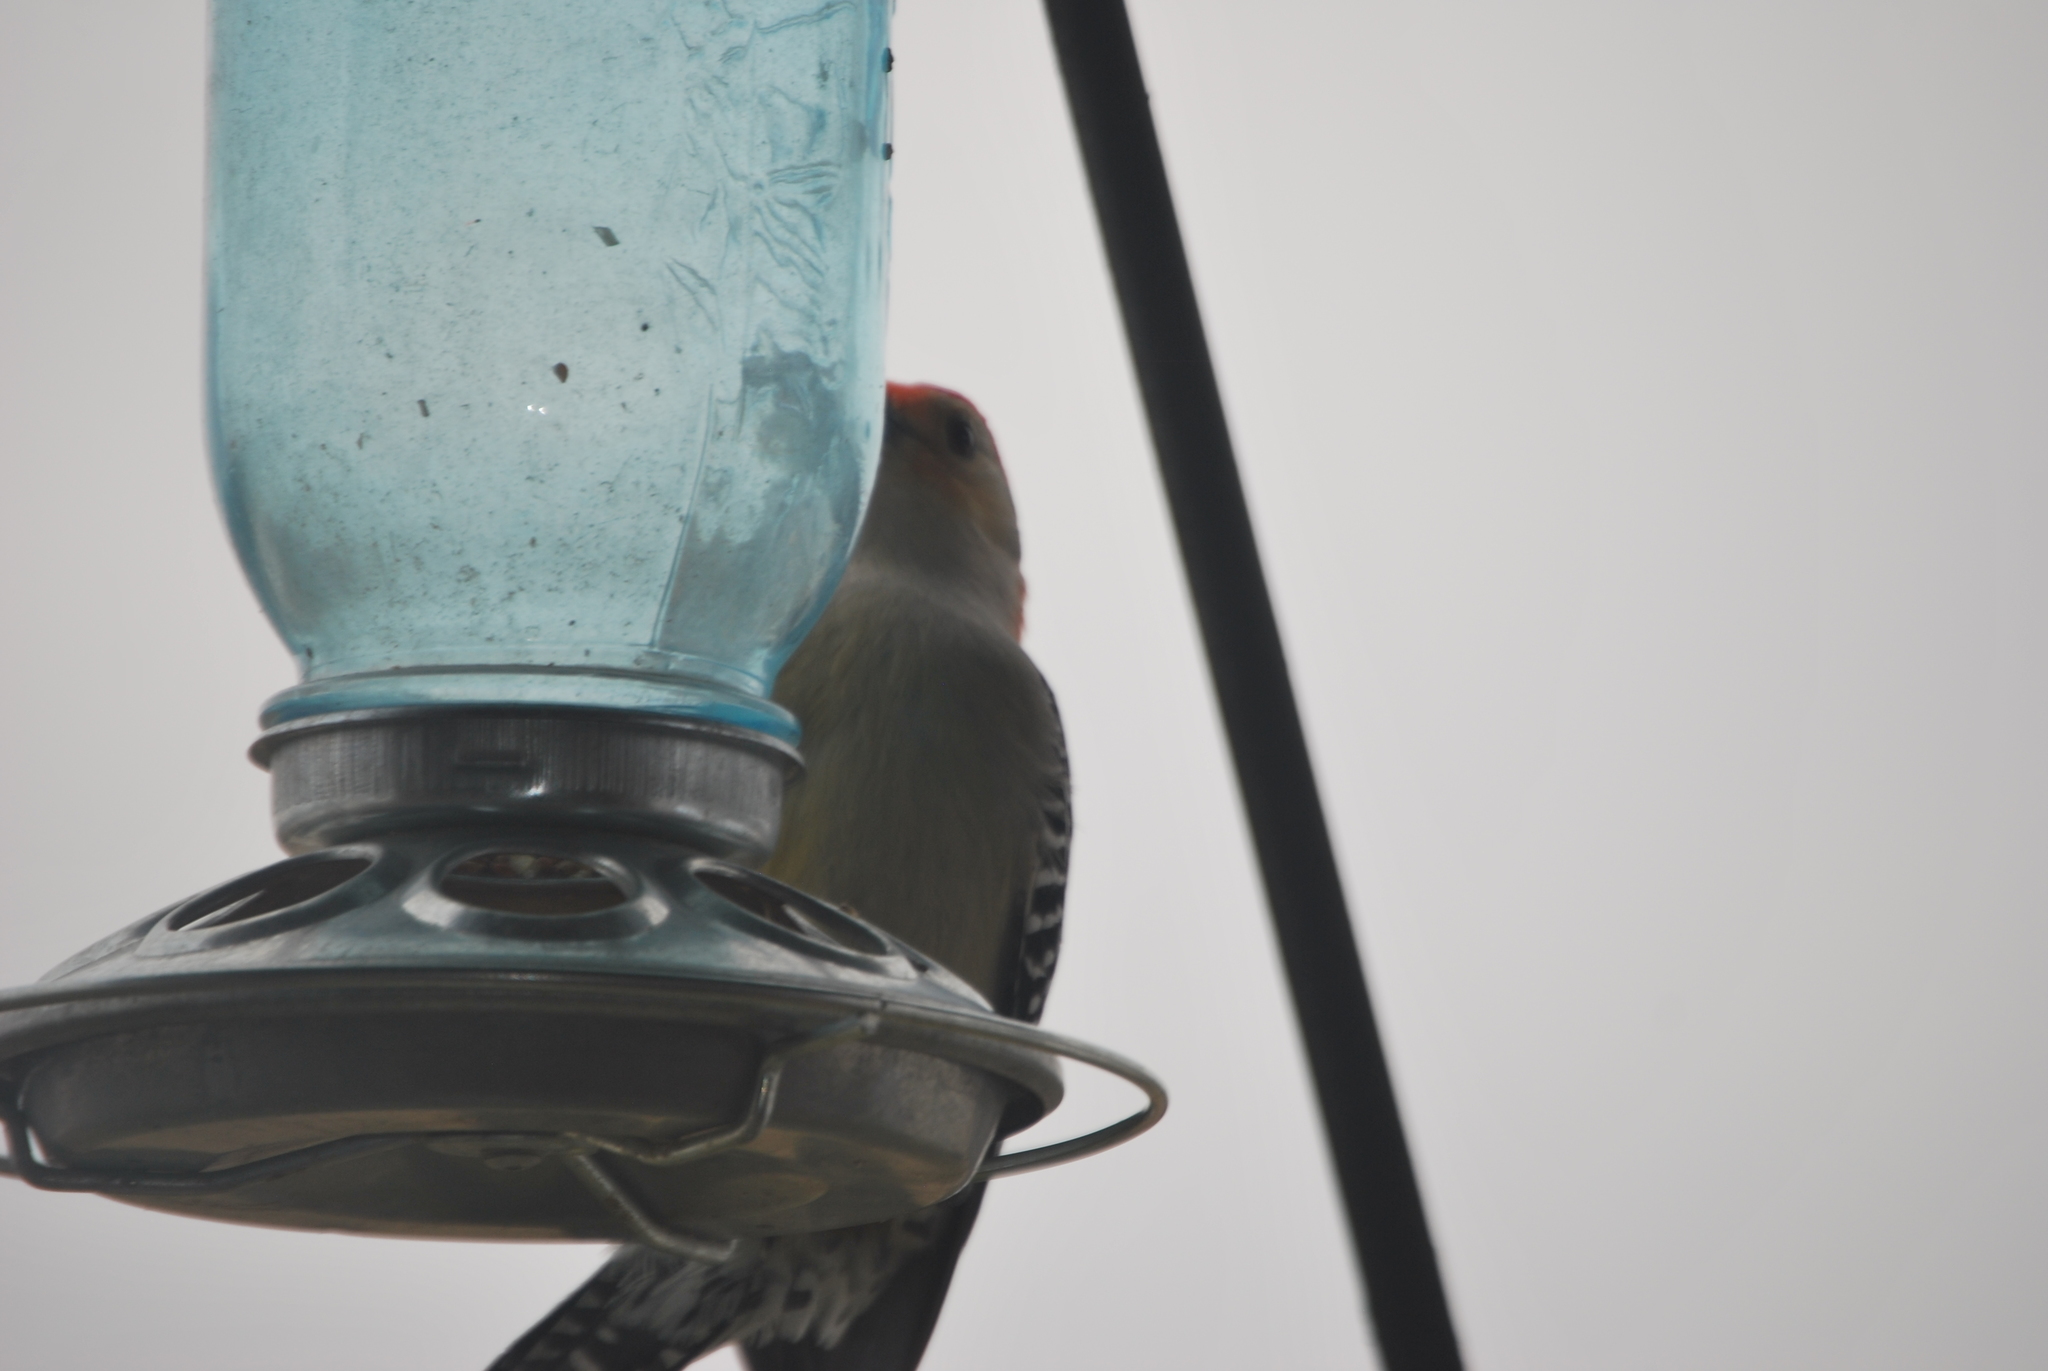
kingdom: Animalia
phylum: Chordata
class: Aves
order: Piciformes
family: Picidae
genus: Melanerpes
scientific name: Melanerpes carolinus
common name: Red-bellied woodpecker
